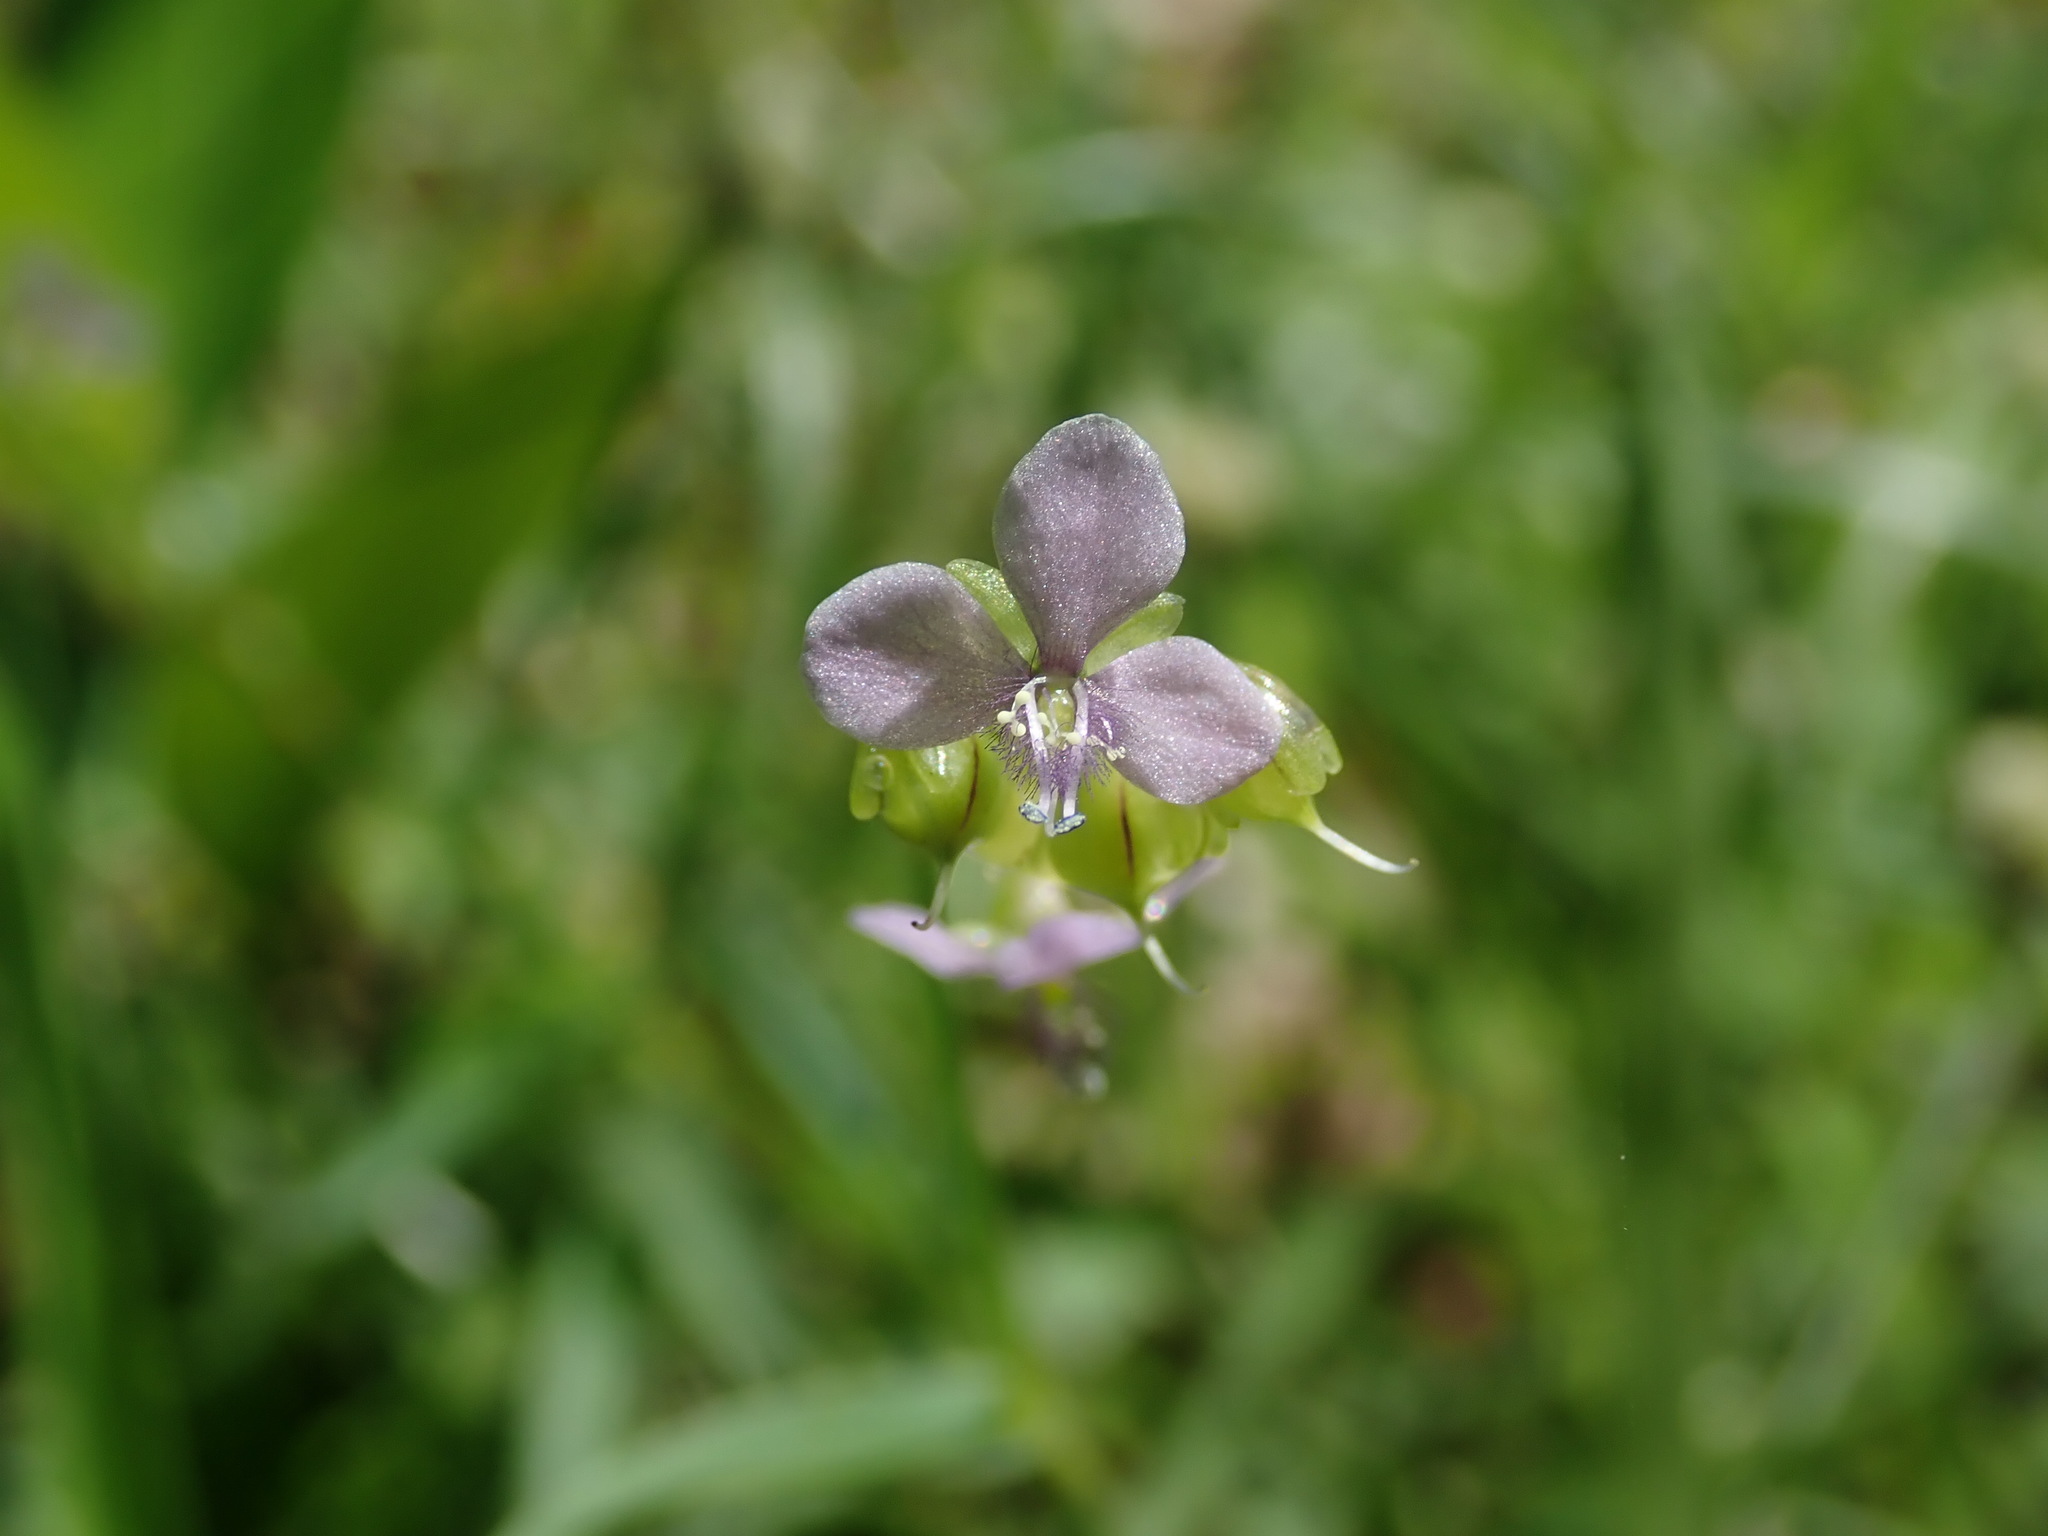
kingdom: Plantae
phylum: Tracheophyta
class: Liliopsida
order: Commelinales
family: Commelinaceae
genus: Murdannia
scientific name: Murdannia nudiflora
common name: Nakedstem dewflower
